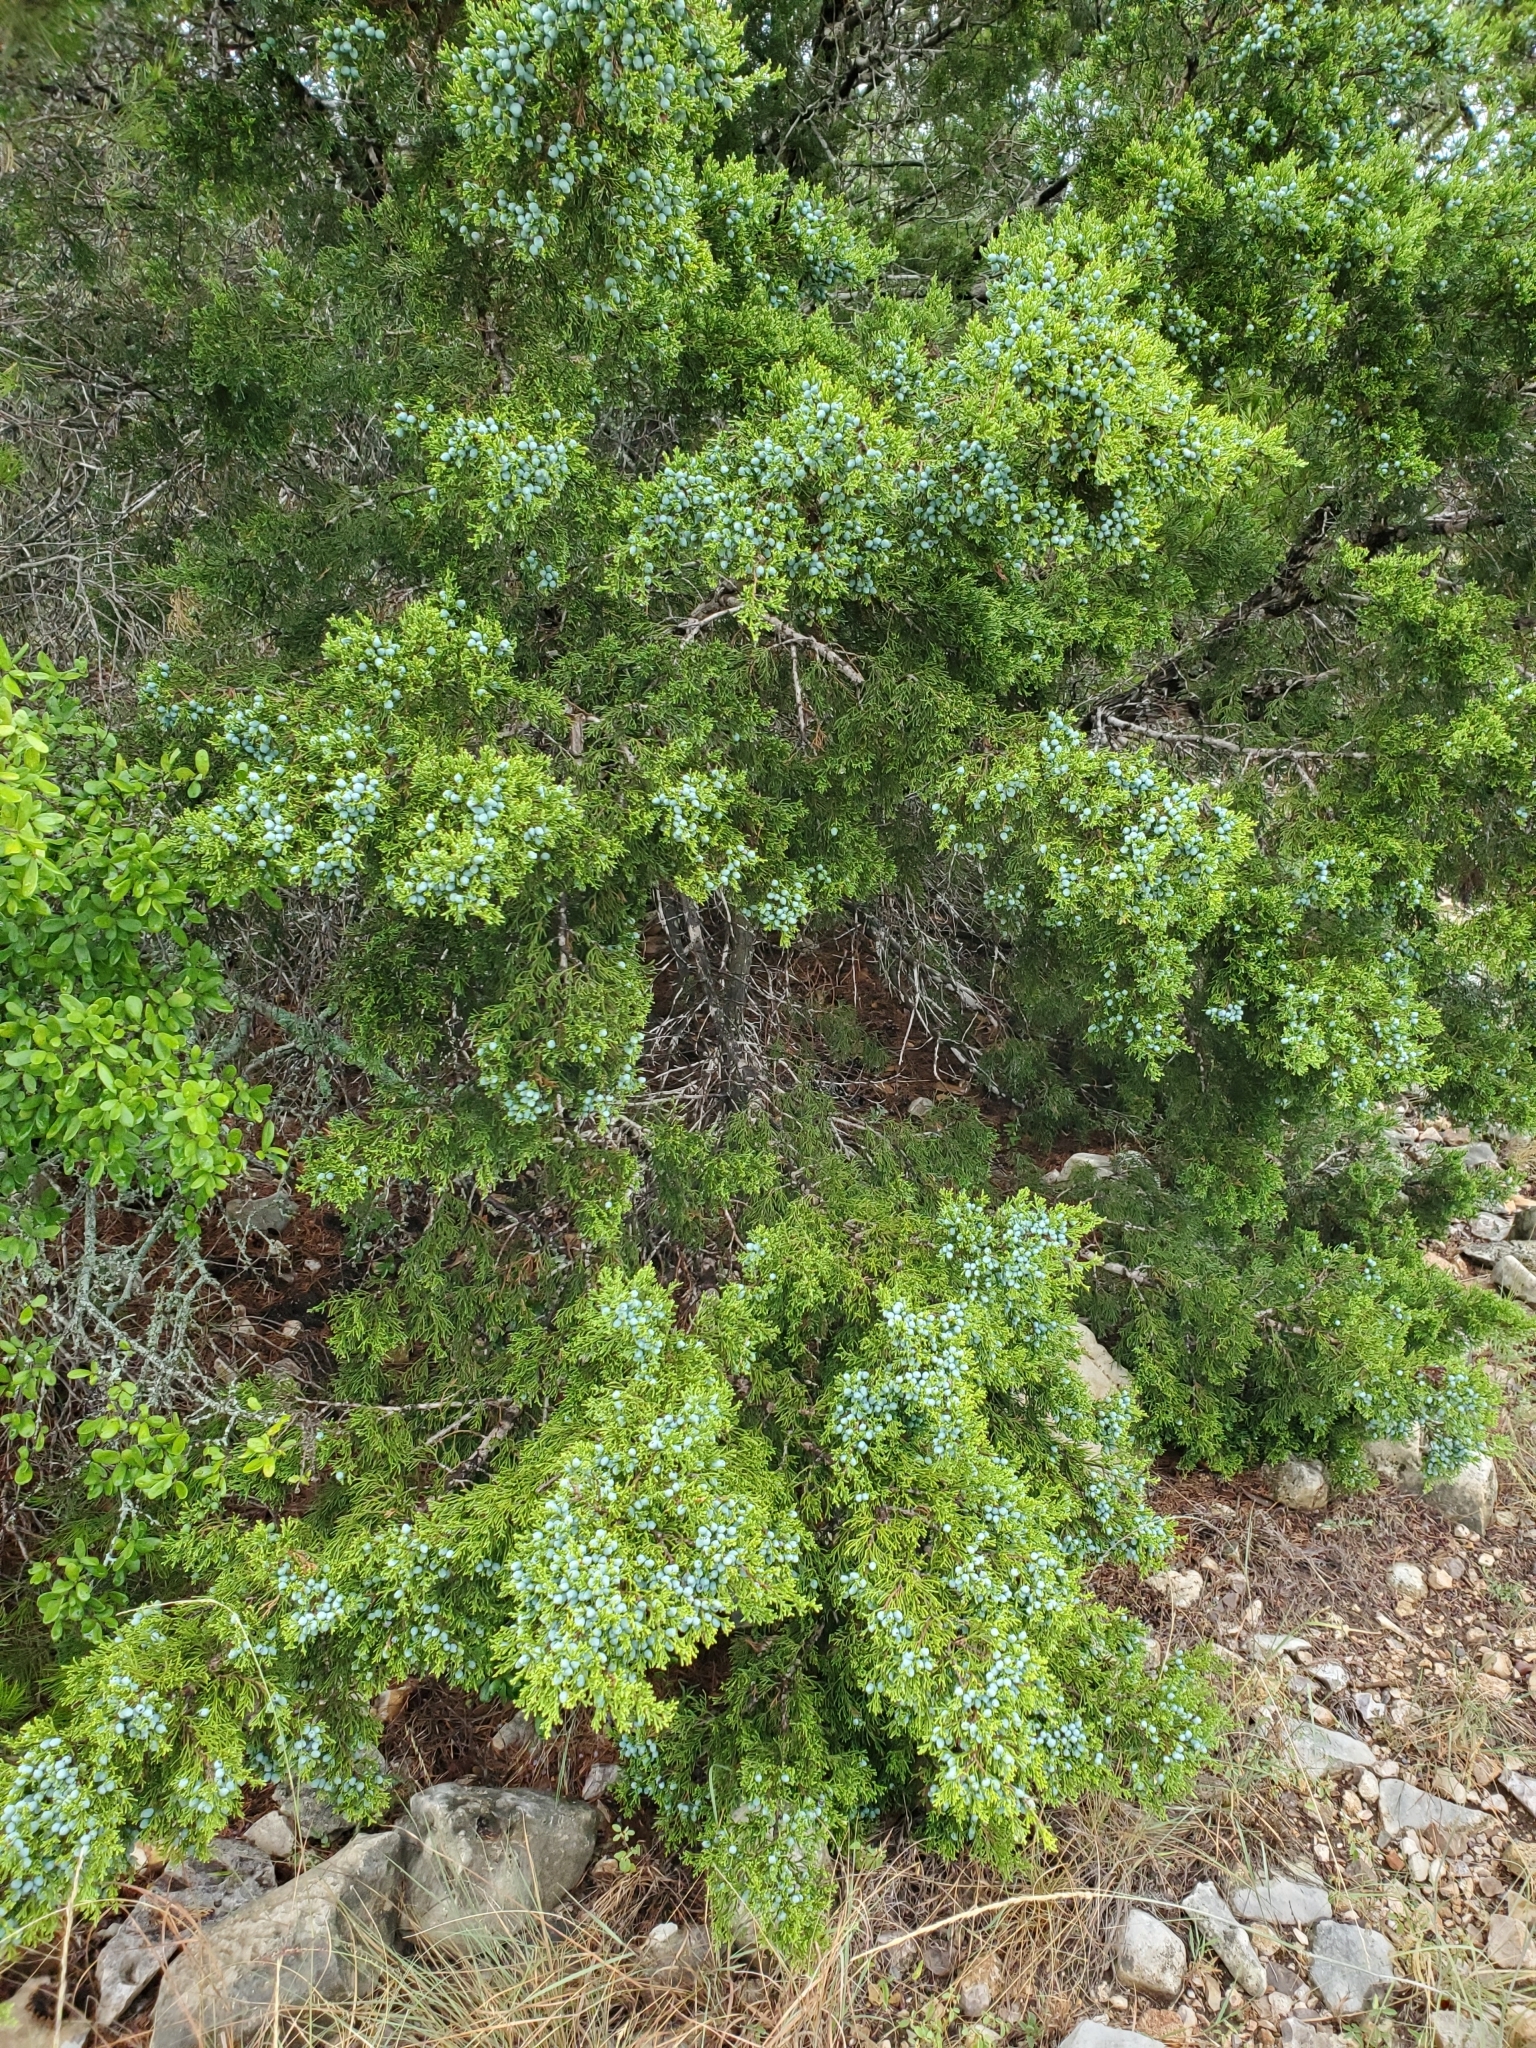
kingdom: Plantae
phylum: Tracheophyta
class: Pinopsida
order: Pinales
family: Cupressaceae
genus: Juniperus
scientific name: Juniperus ashei
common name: Mexican juniper
